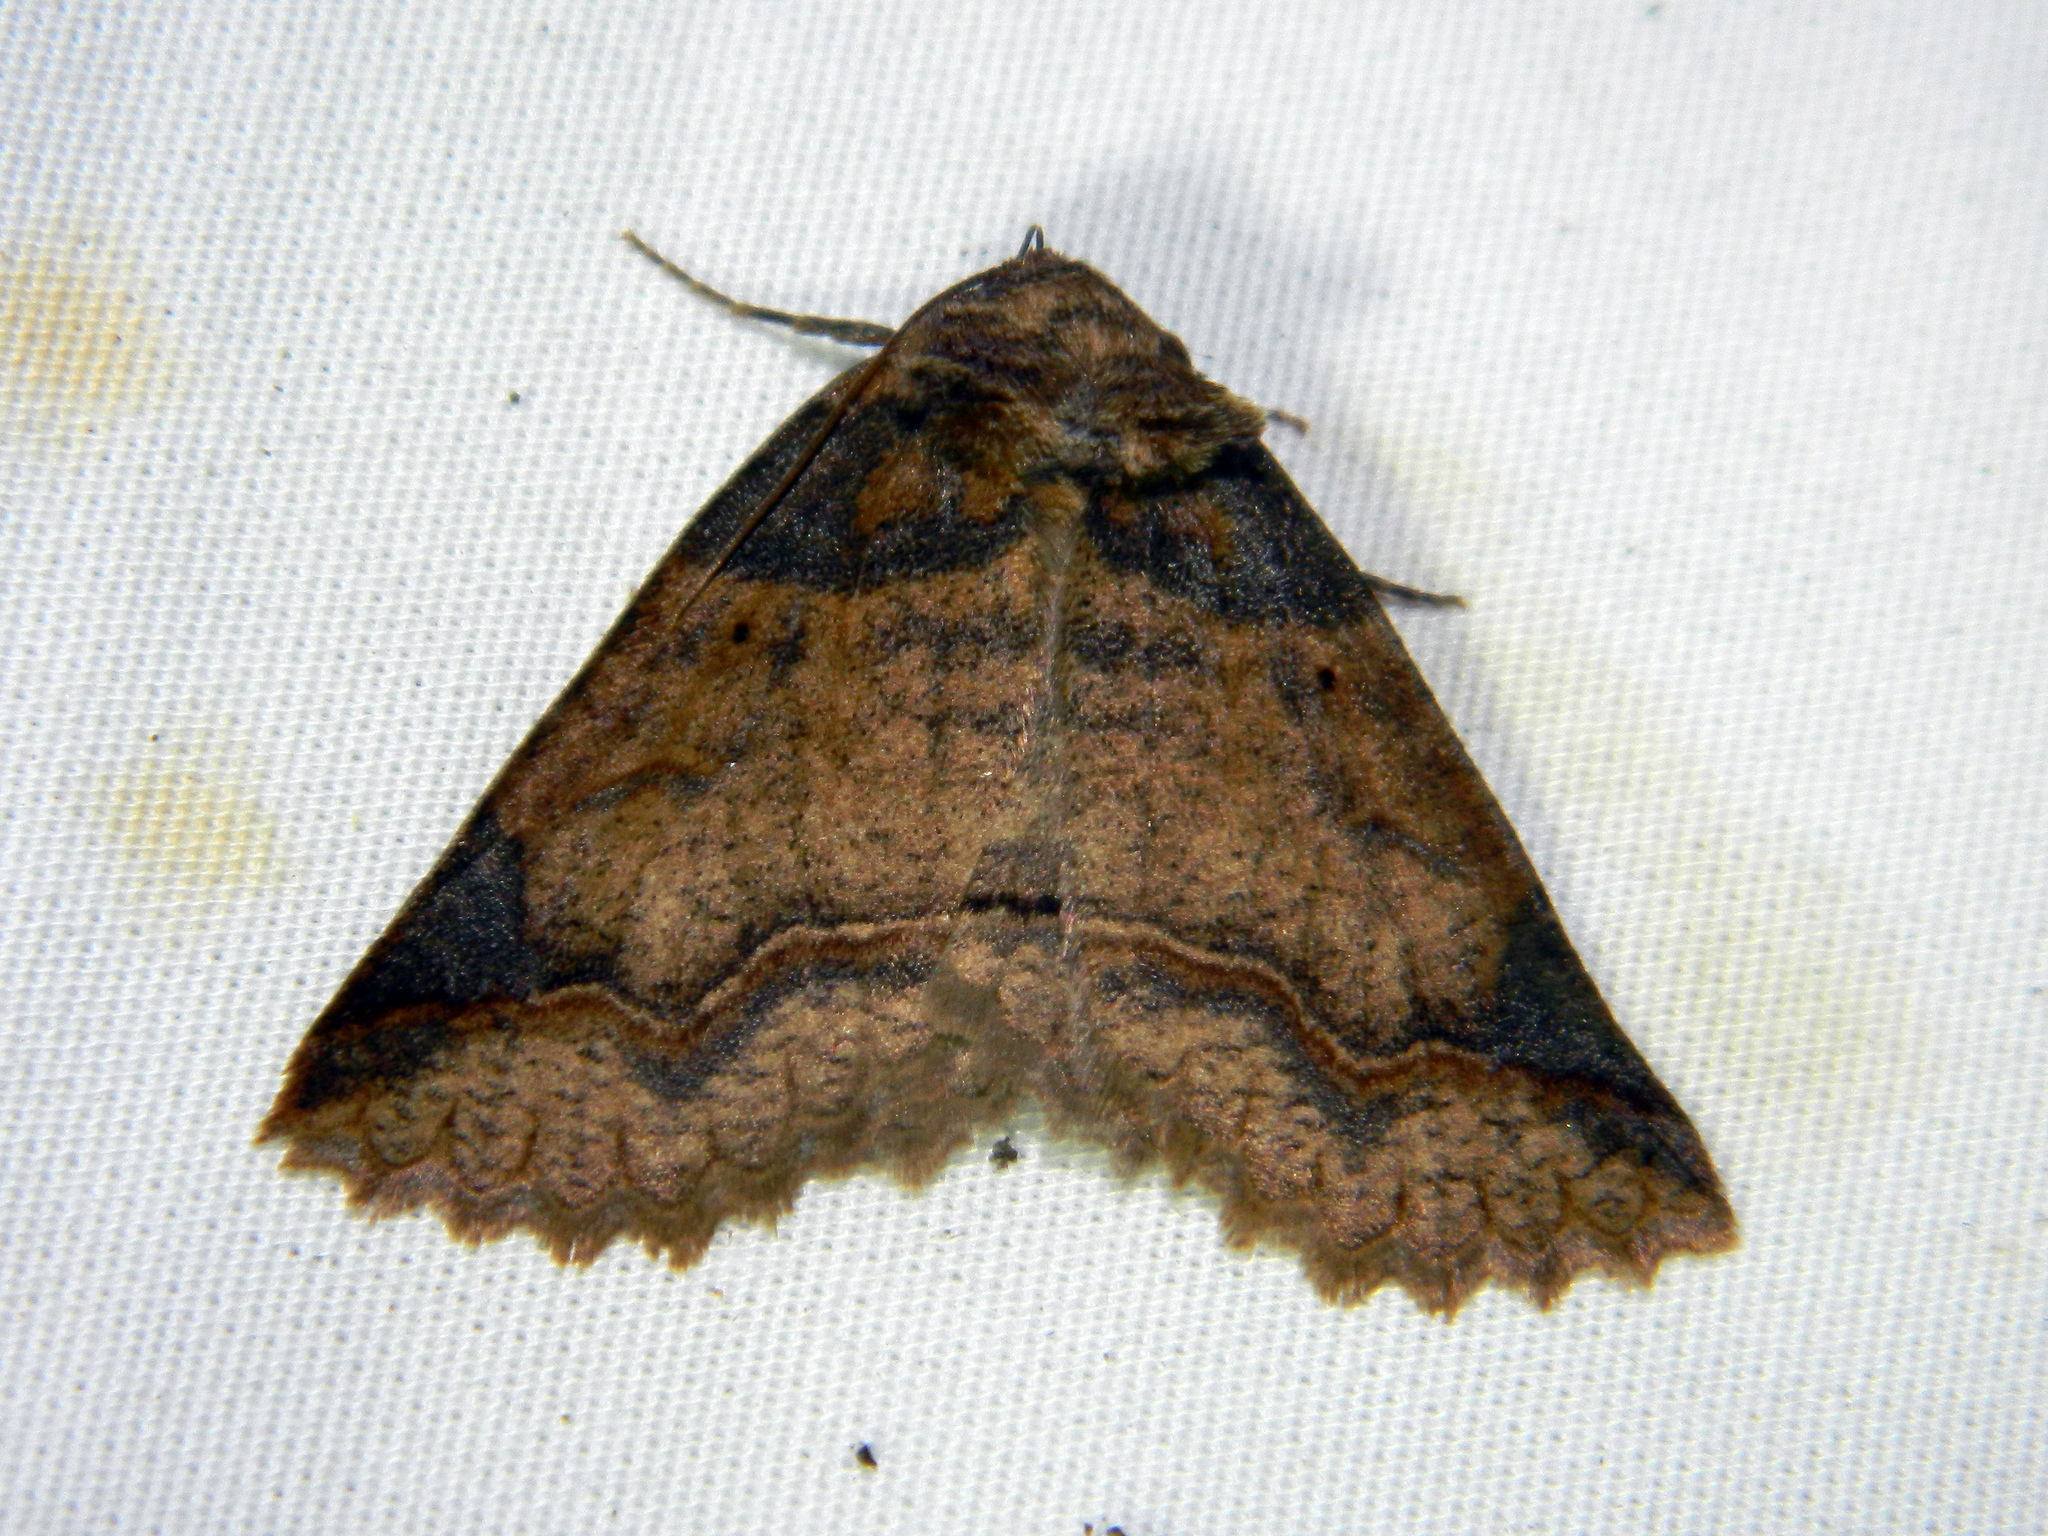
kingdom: Animalia
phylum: Arthropoda
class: Insecta
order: Lepidoptera
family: Erebidae
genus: Zale
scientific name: Zale unilineata
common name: One-lined zale moth
